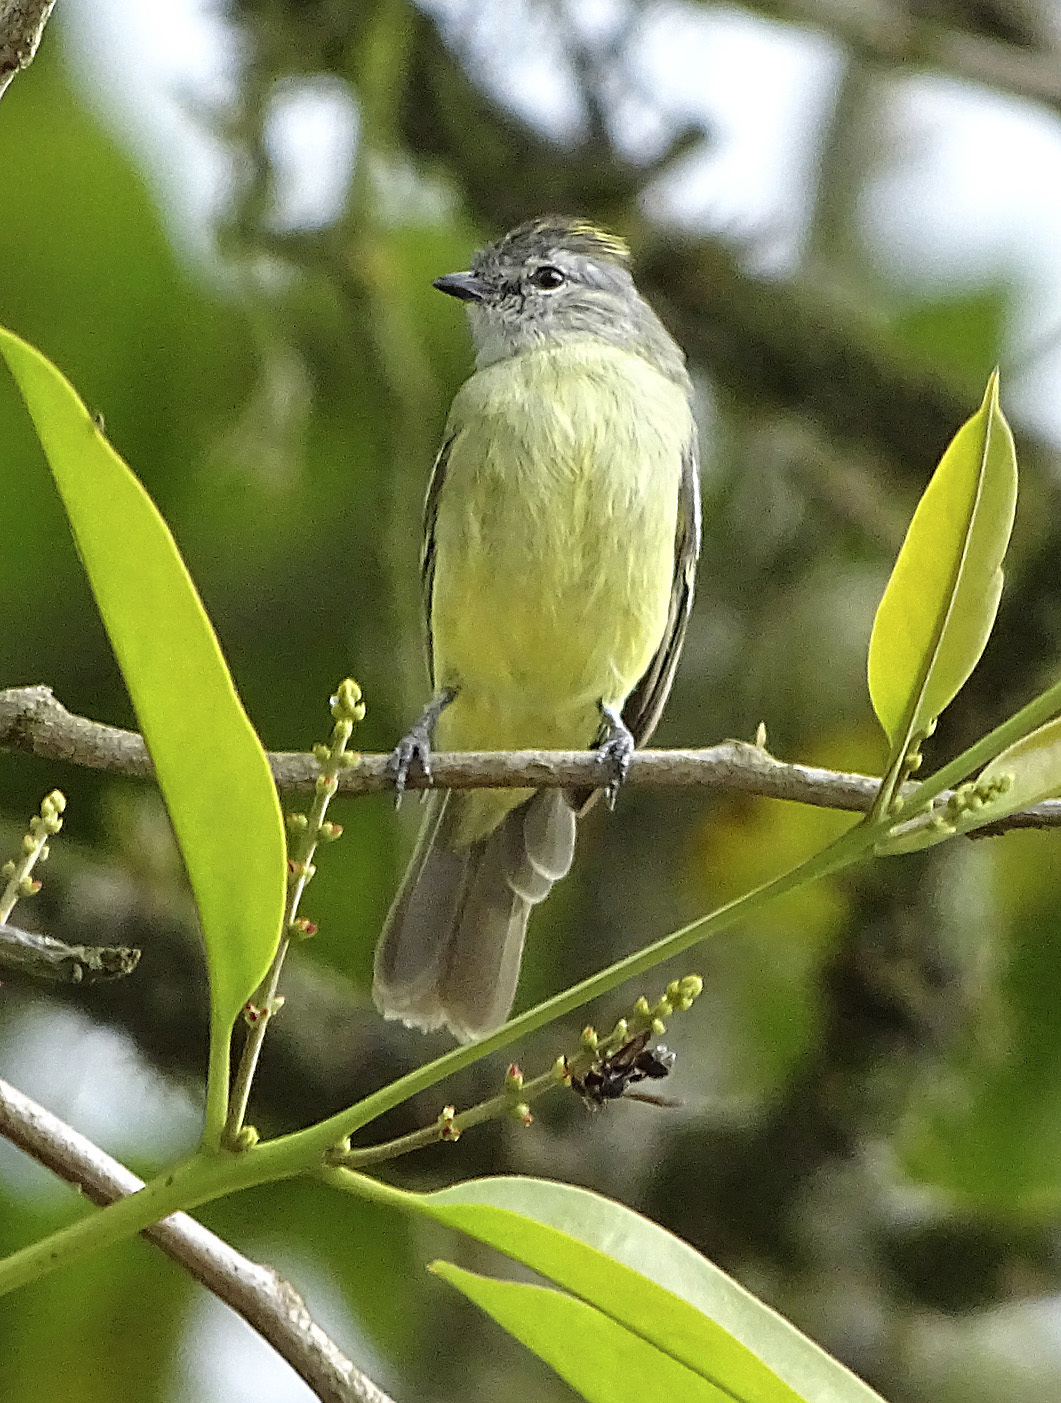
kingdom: Animalia
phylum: Chordata
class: Aves
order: Passeriformes
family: Tyrannidae
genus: Tyrannulus
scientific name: Tyrannulus elatus
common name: Yellow-crowned tyrannulet
